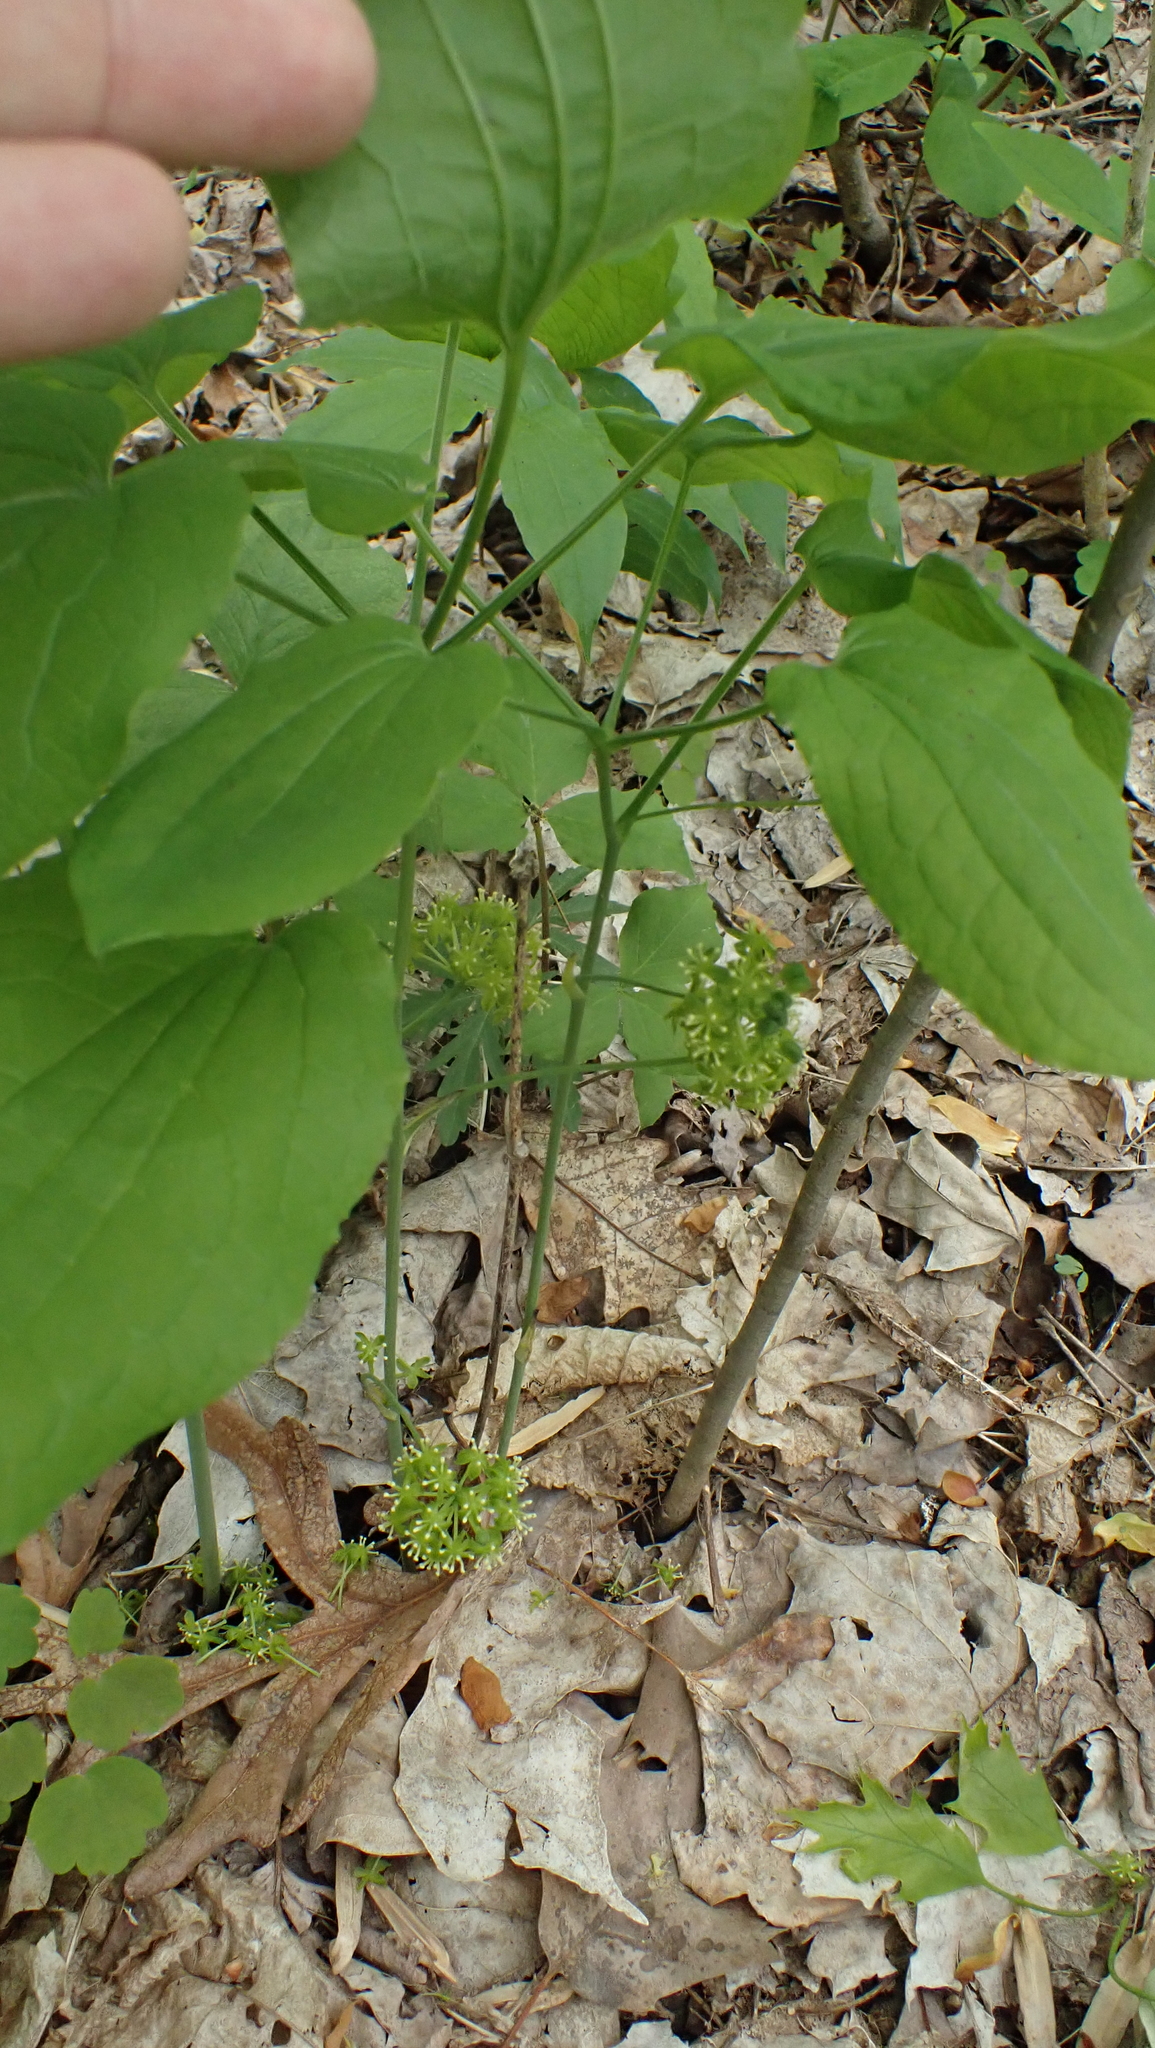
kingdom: Plantae
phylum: Tracheophyta
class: Liliopsida
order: Liliales
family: Smilacaceae
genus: Smilax
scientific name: Smilax ecirrhata
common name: Upright carrionflower
